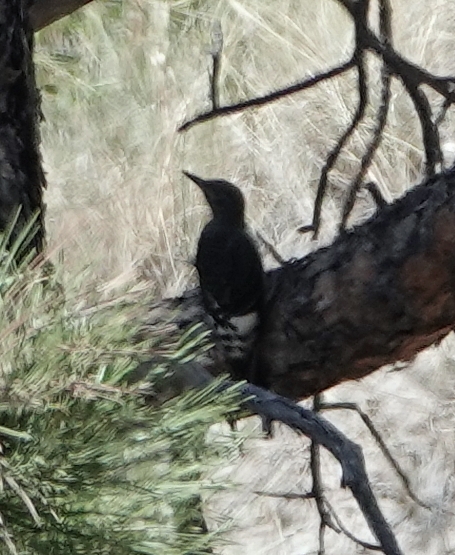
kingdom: Animalia
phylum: Chordata
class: Aves
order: Piciformes
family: Picidae
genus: Melanerpes
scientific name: Melanerpes erythrocephalus
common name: Red-headed woodpecker
